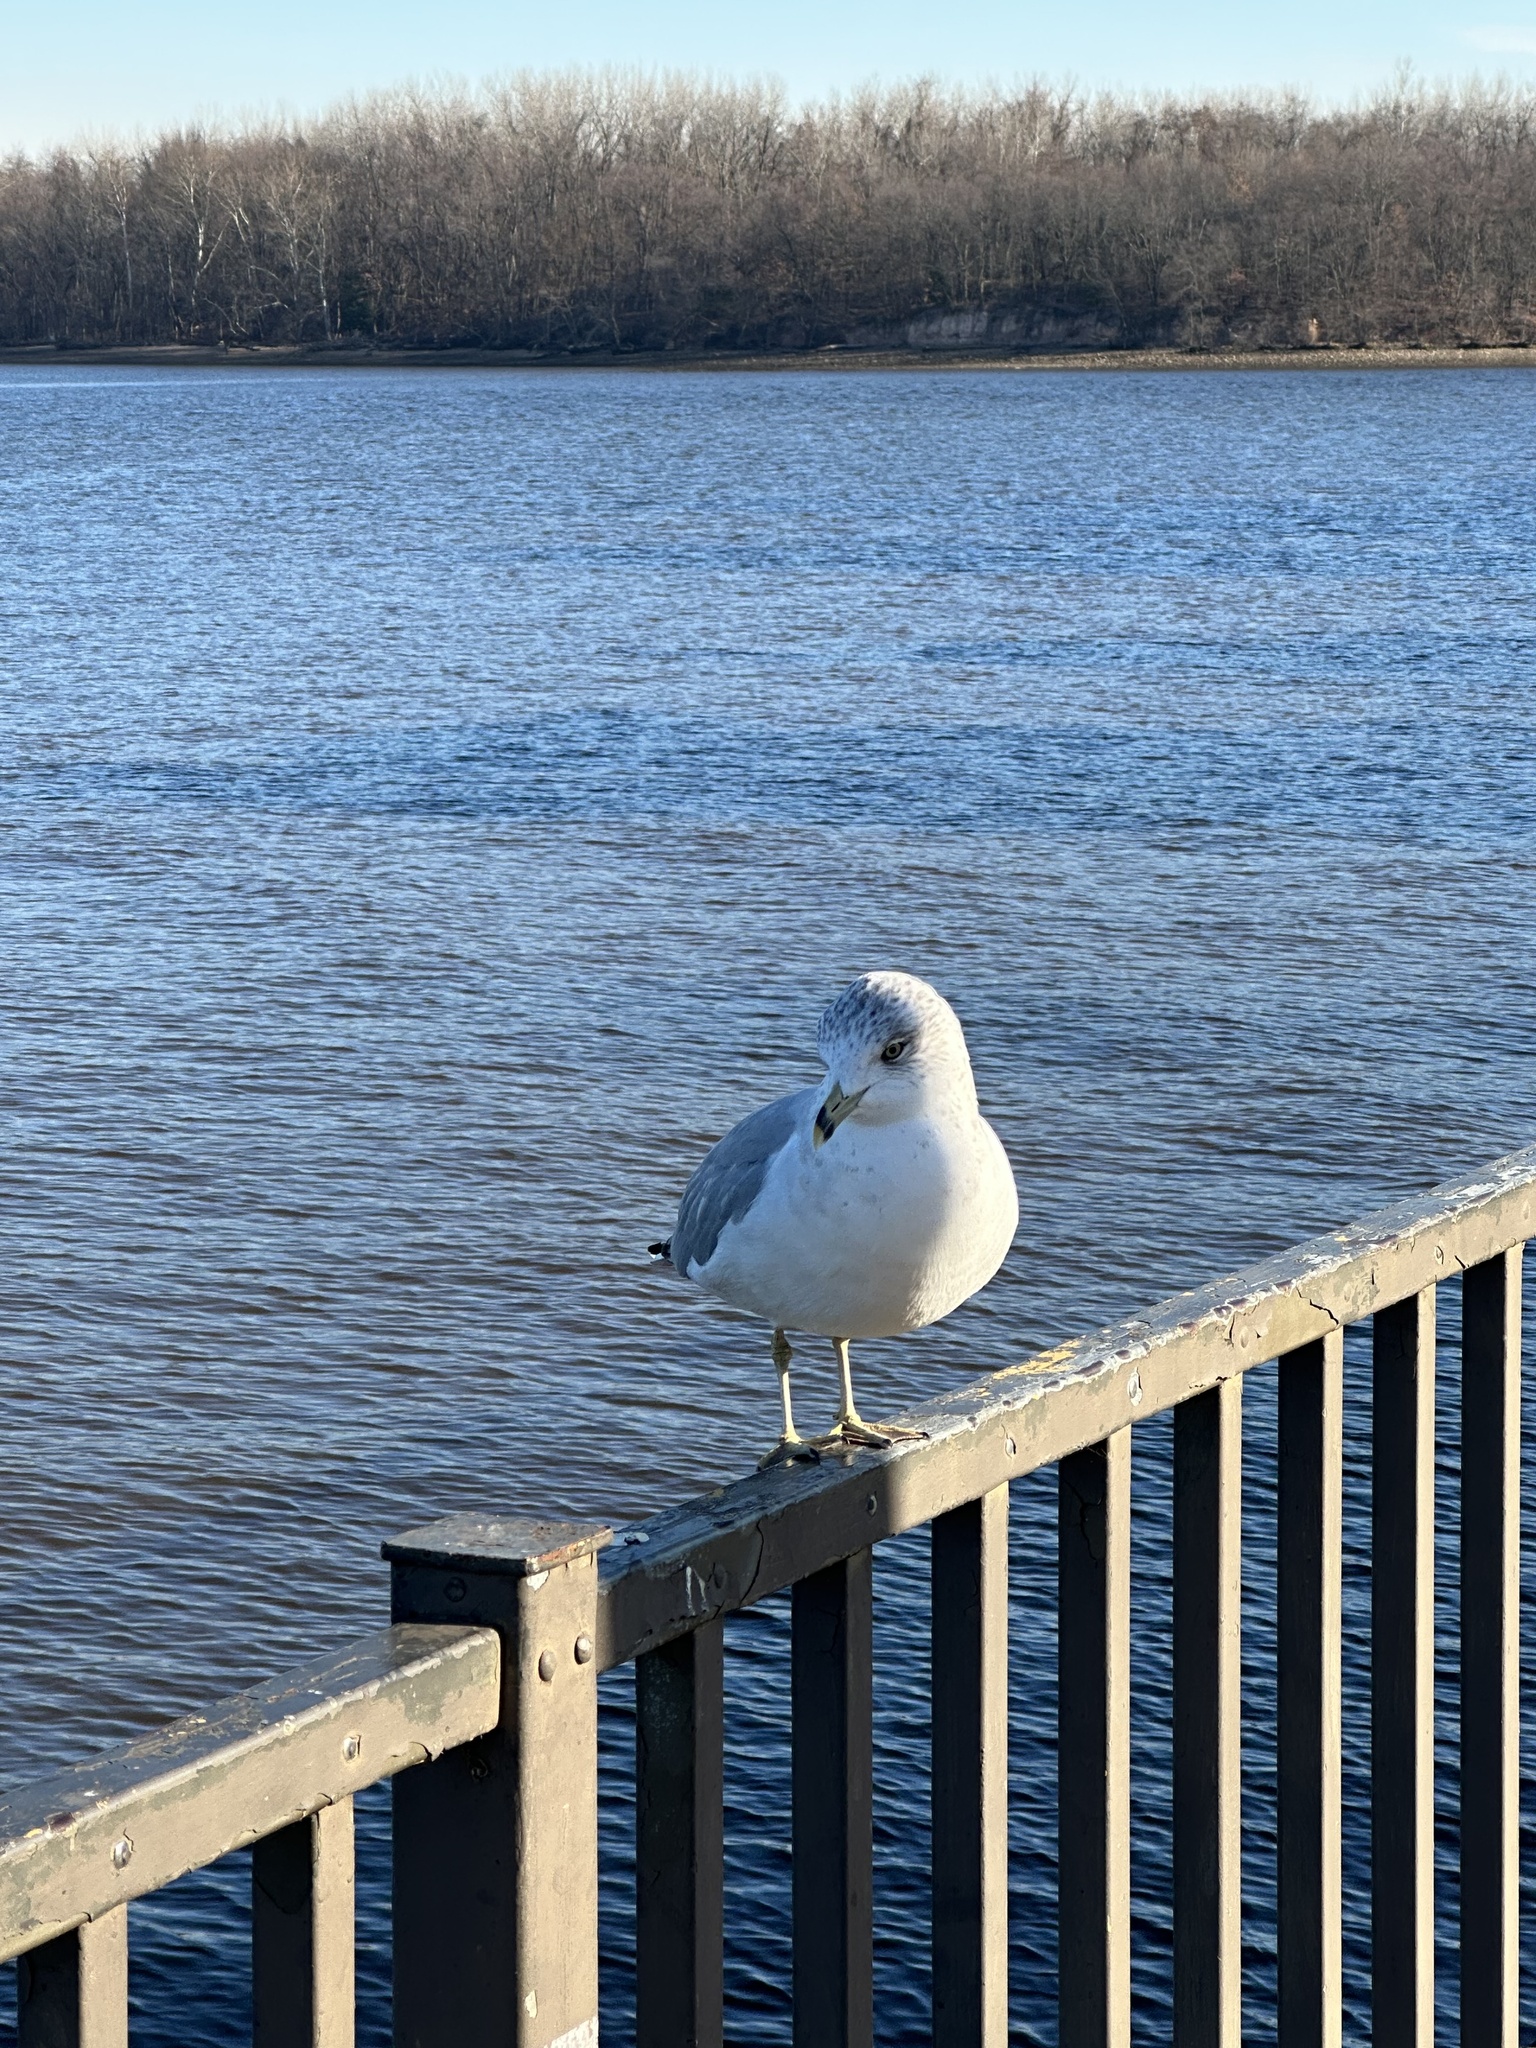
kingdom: Animalia
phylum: Chordata
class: Aves
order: Charadriiformes
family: Laridae
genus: Larus
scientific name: Larus delawarensis
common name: Ring-billed gull
